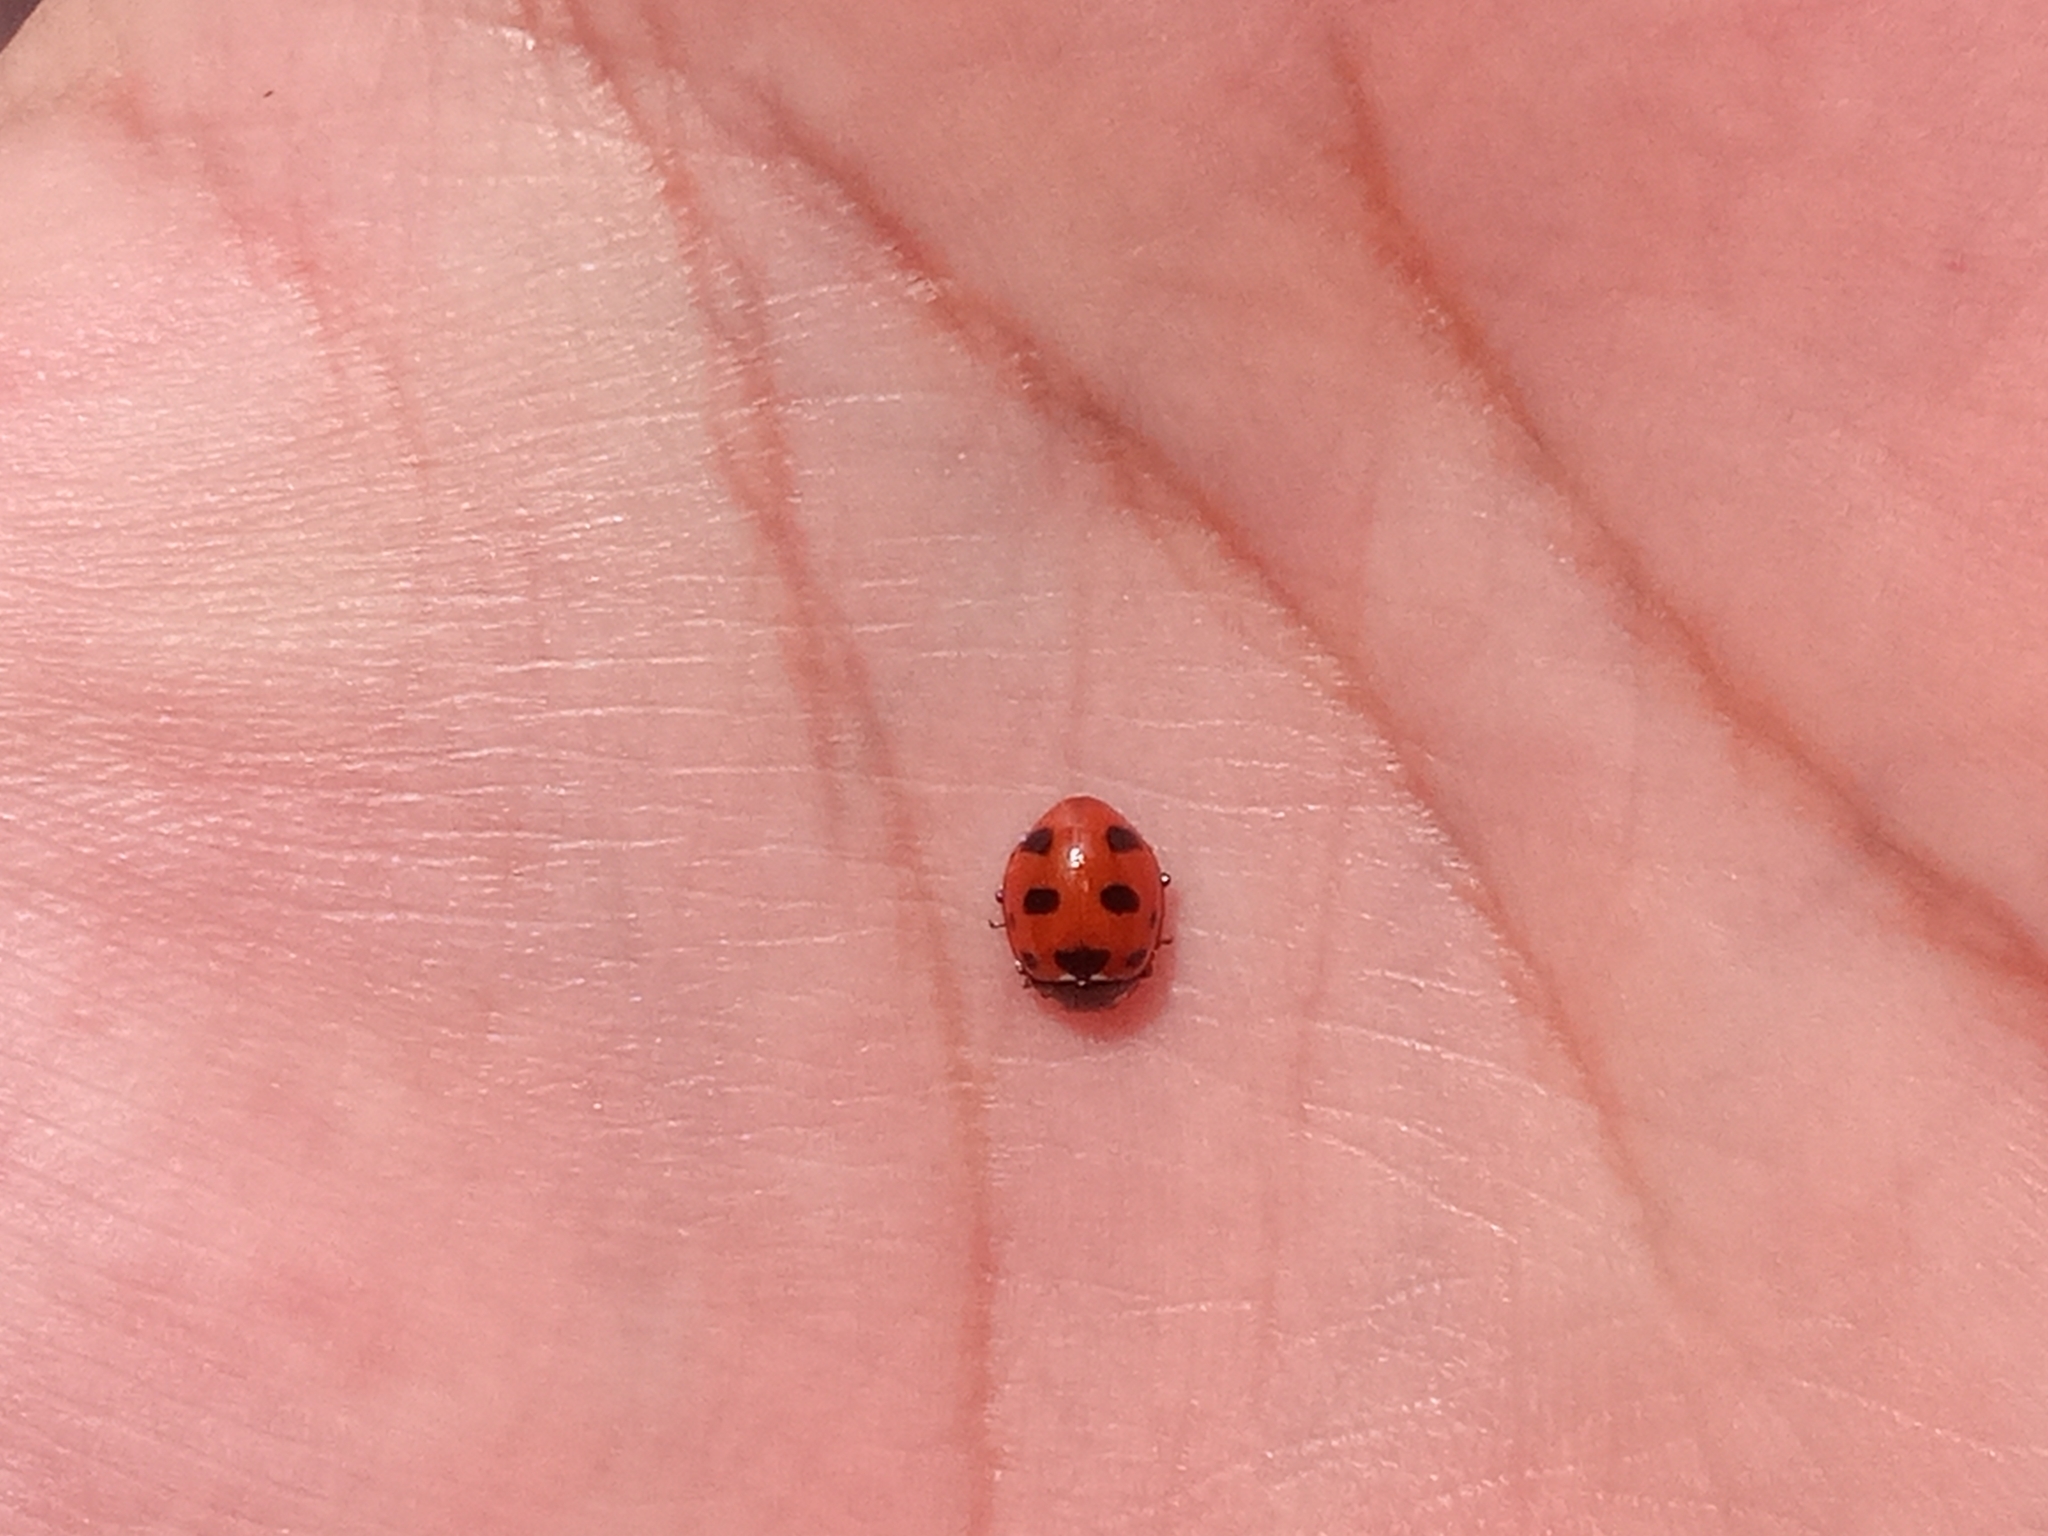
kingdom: Animalia
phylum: Arthropoda
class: Insecta
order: Coleoptera
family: Coccinellidae
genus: Coccinella
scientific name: Coccinella
